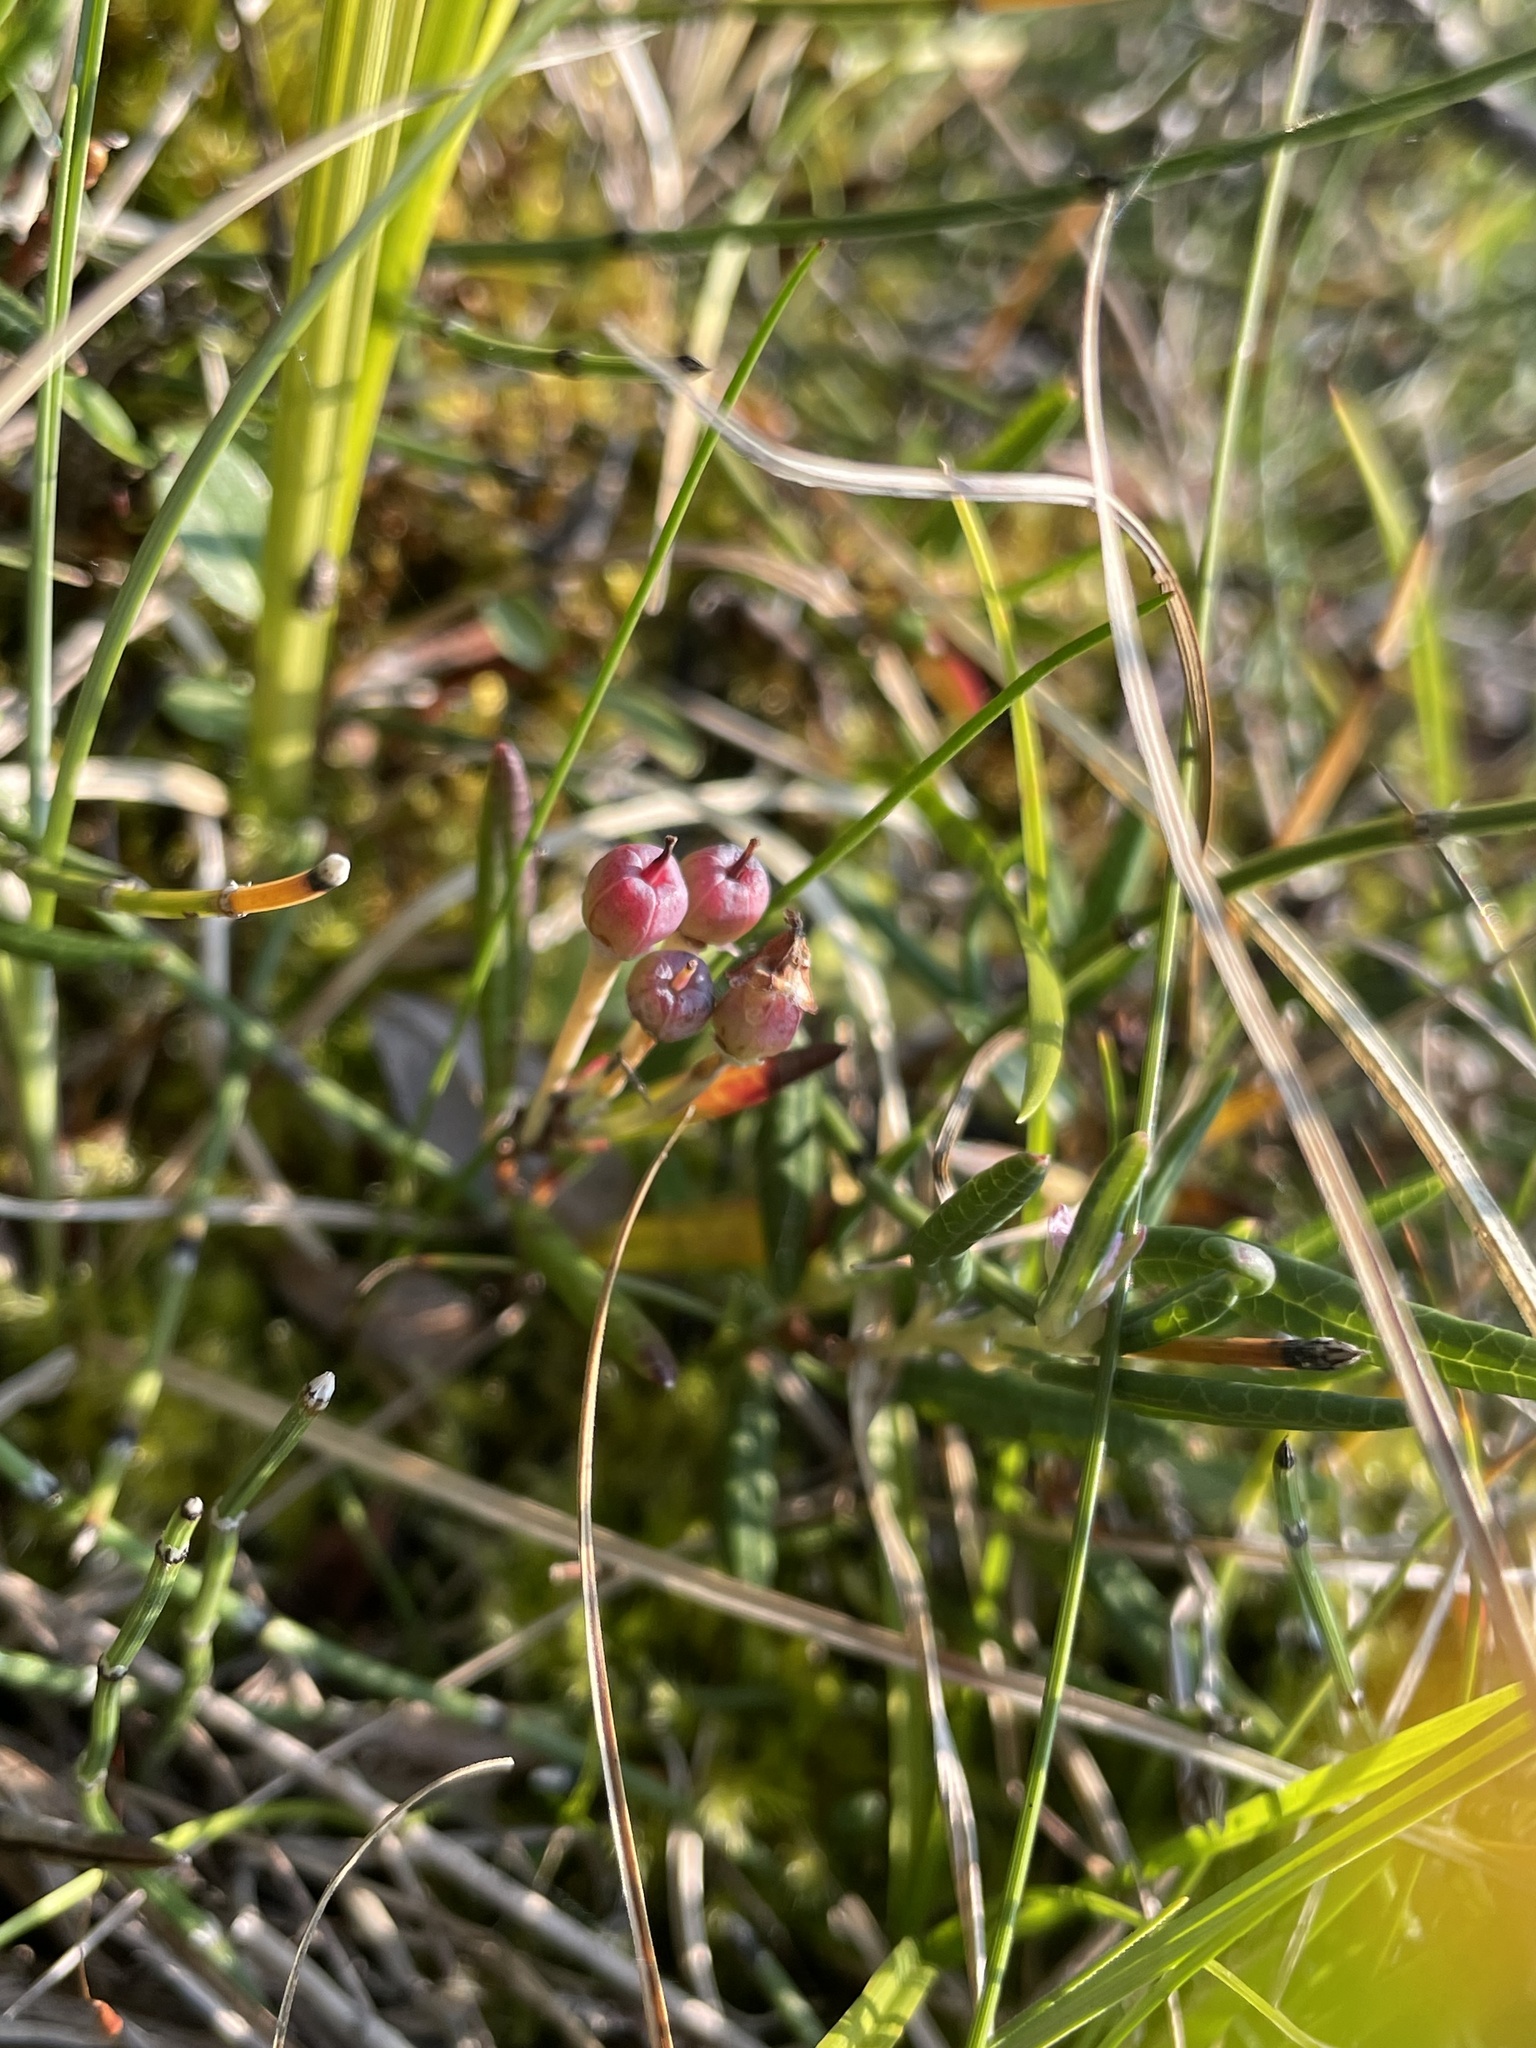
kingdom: Plantae
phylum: Tracheophyta
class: Magnoliopsida
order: Ericales
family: Ericaceae
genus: Andromeda
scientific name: Andromeda polifolia
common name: Bog-rosemary
